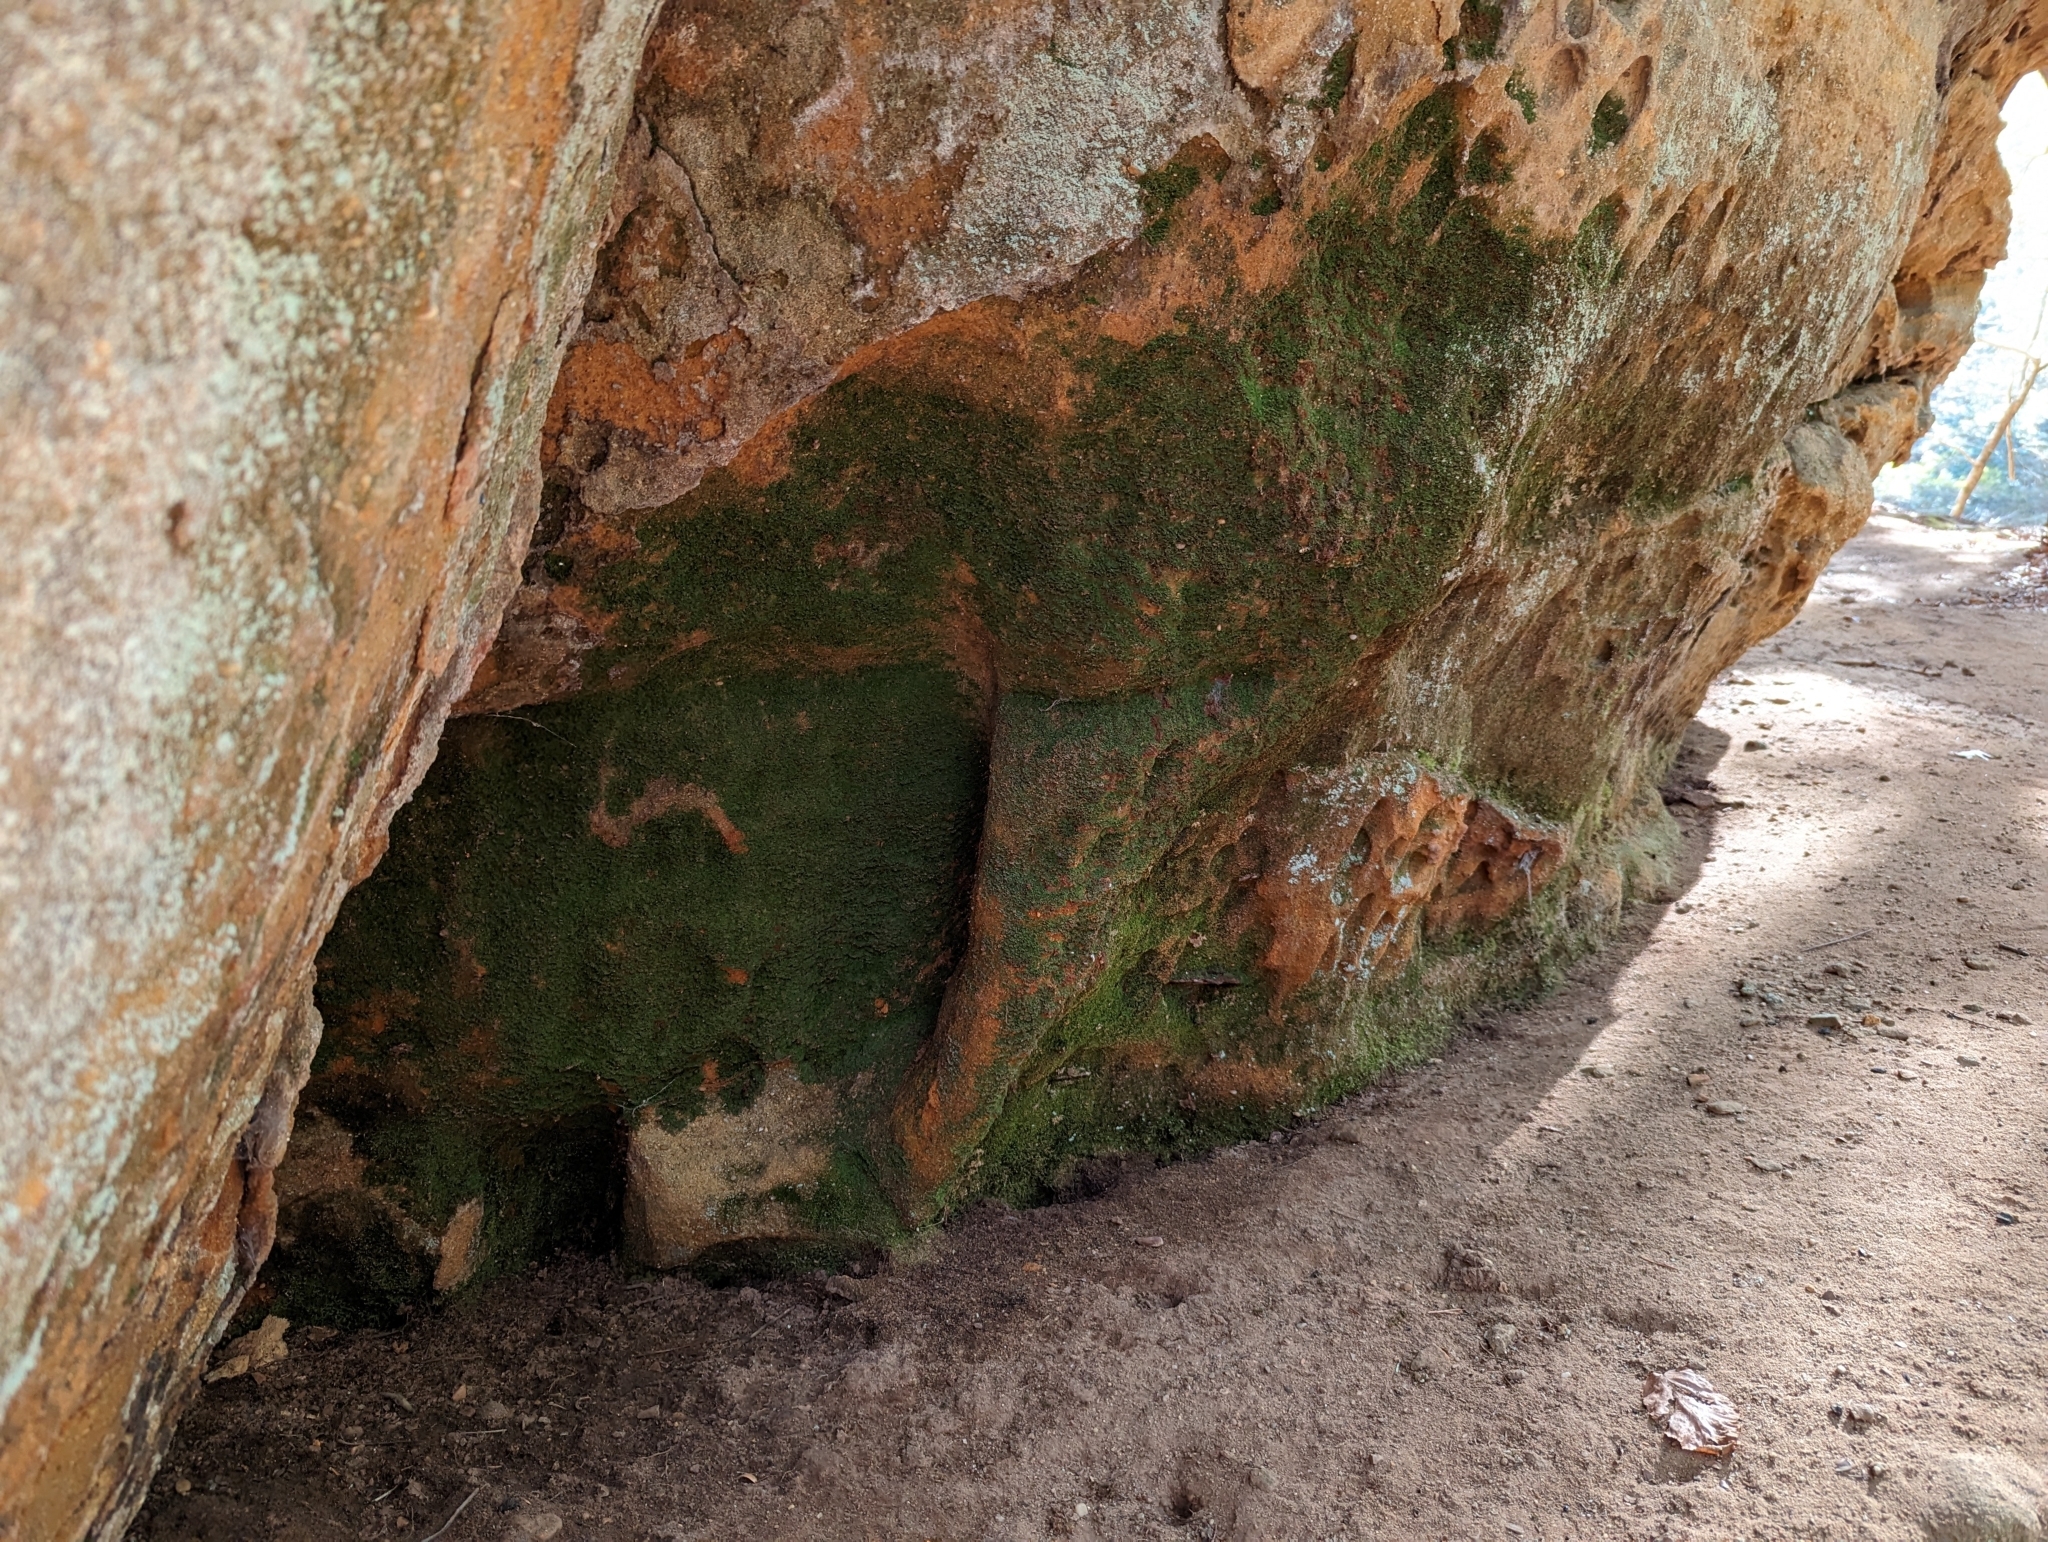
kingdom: Plantae
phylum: Tracheophyta
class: Polypodiopsida
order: Polypodiales
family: Pteridaceae
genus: Vittaria
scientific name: Vittaria appalachiana
